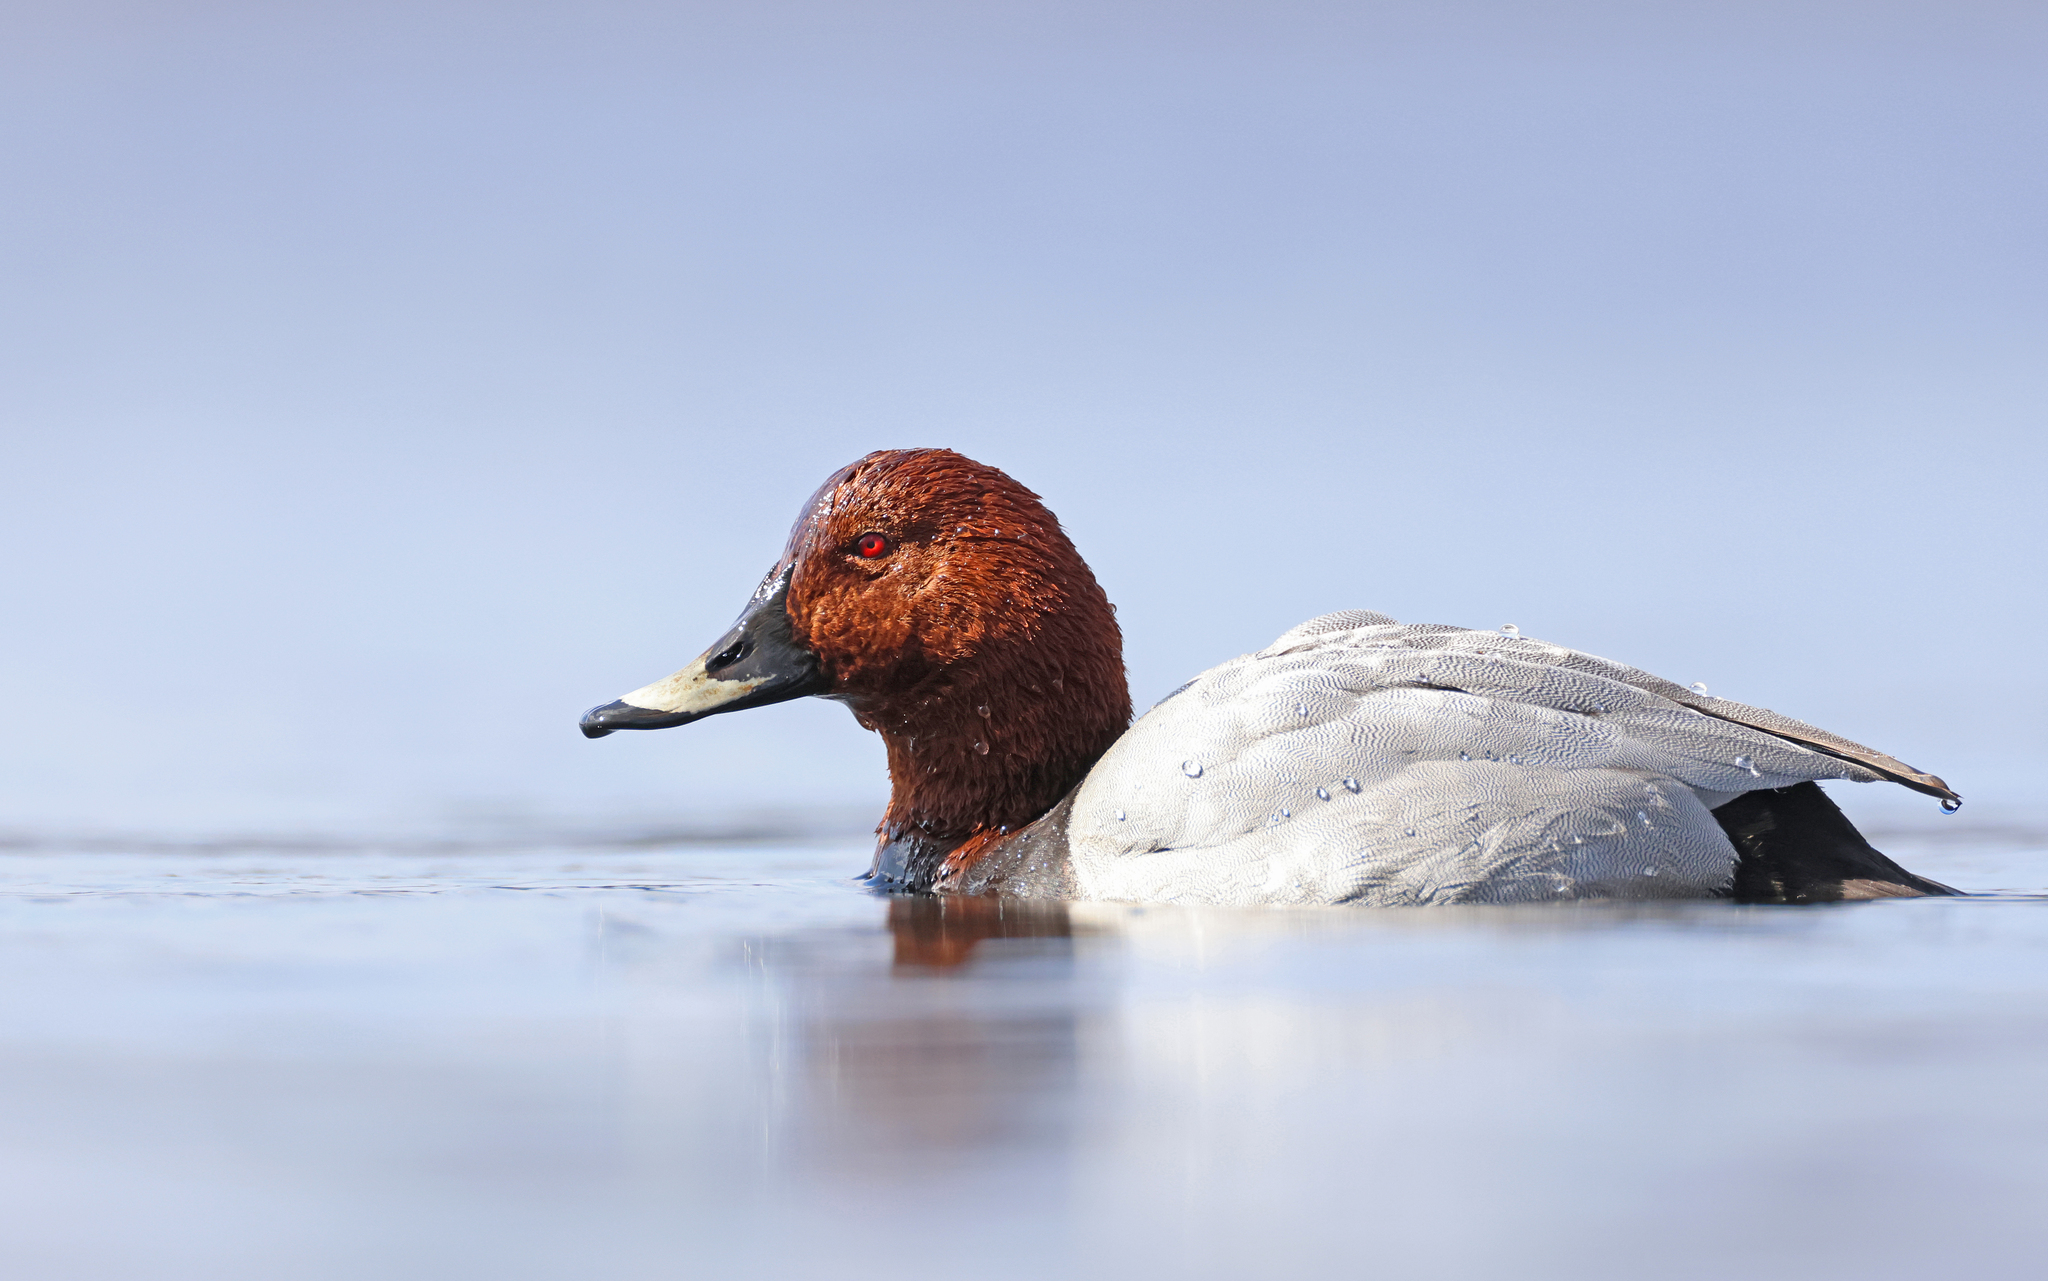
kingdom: Animalia
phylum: Chordata
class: Aves
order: Anseriformes
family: Anatidae
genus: Aythya
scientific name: Aythya ferina
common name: Common pochard
